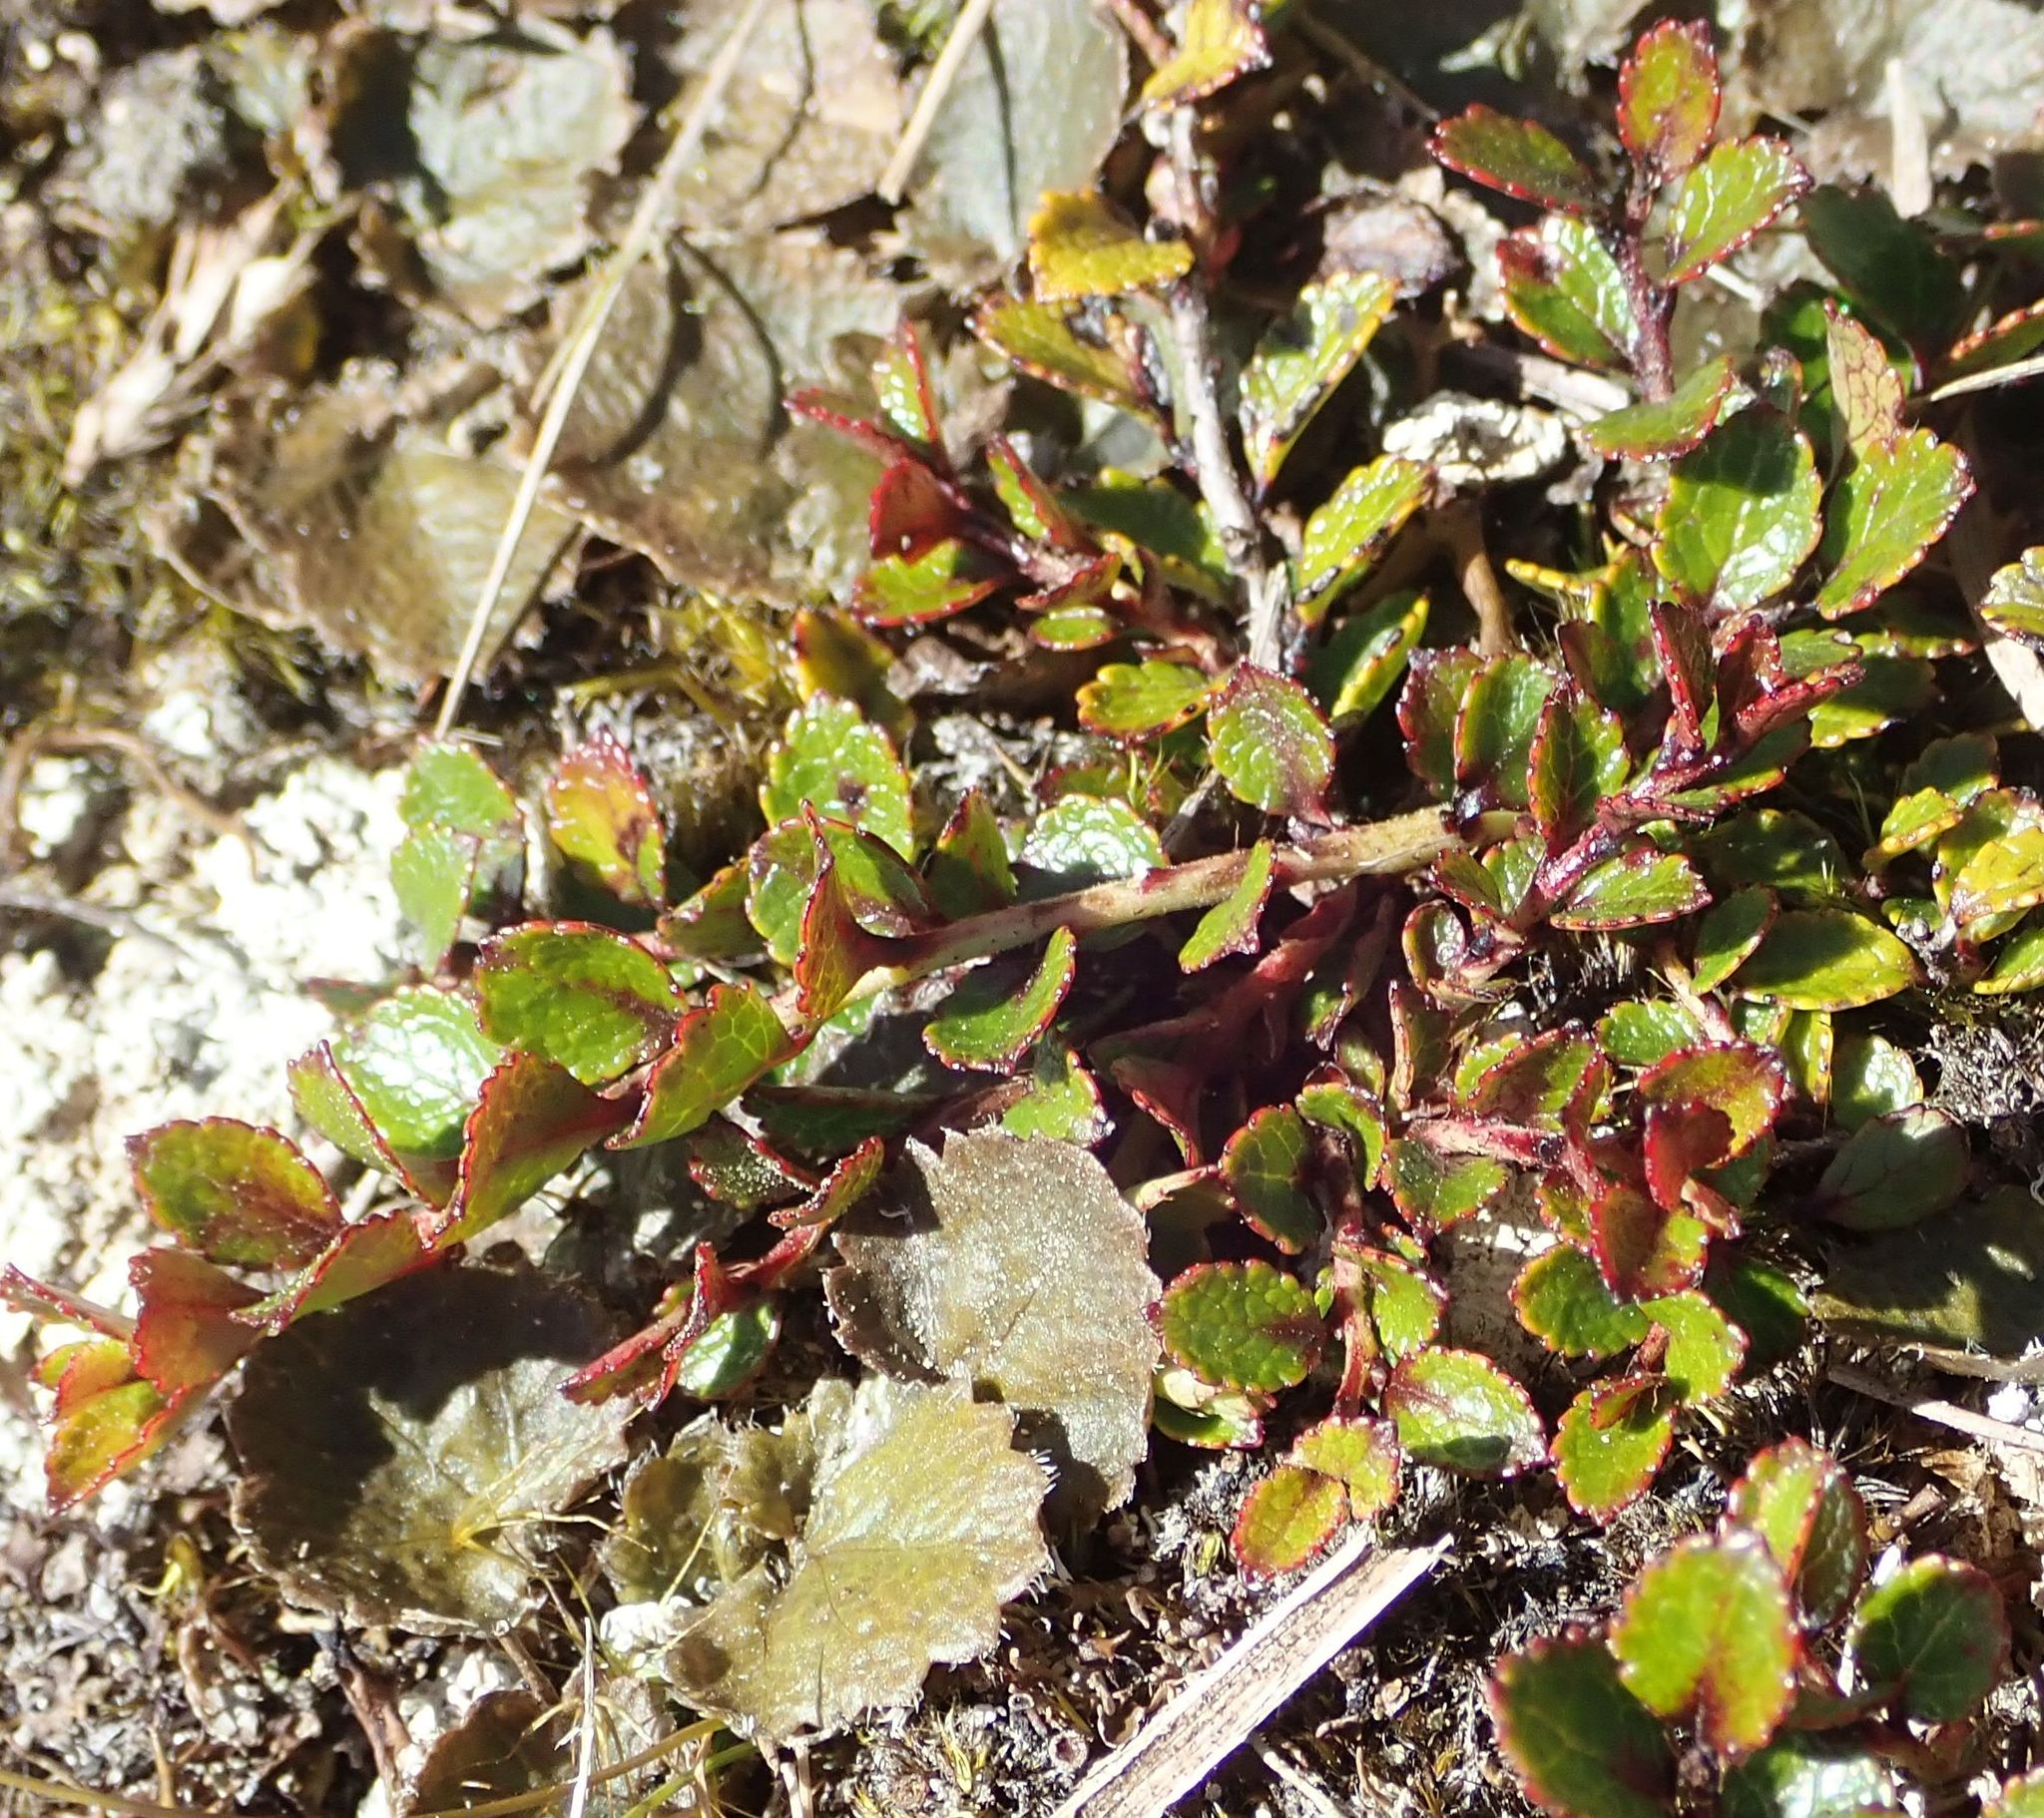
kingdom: Plantae
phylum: Tracheophyta
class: Magnoliopsida
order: Ericales
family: Ericaceae
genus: Gaultheria
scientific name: Gaultheria depressa
